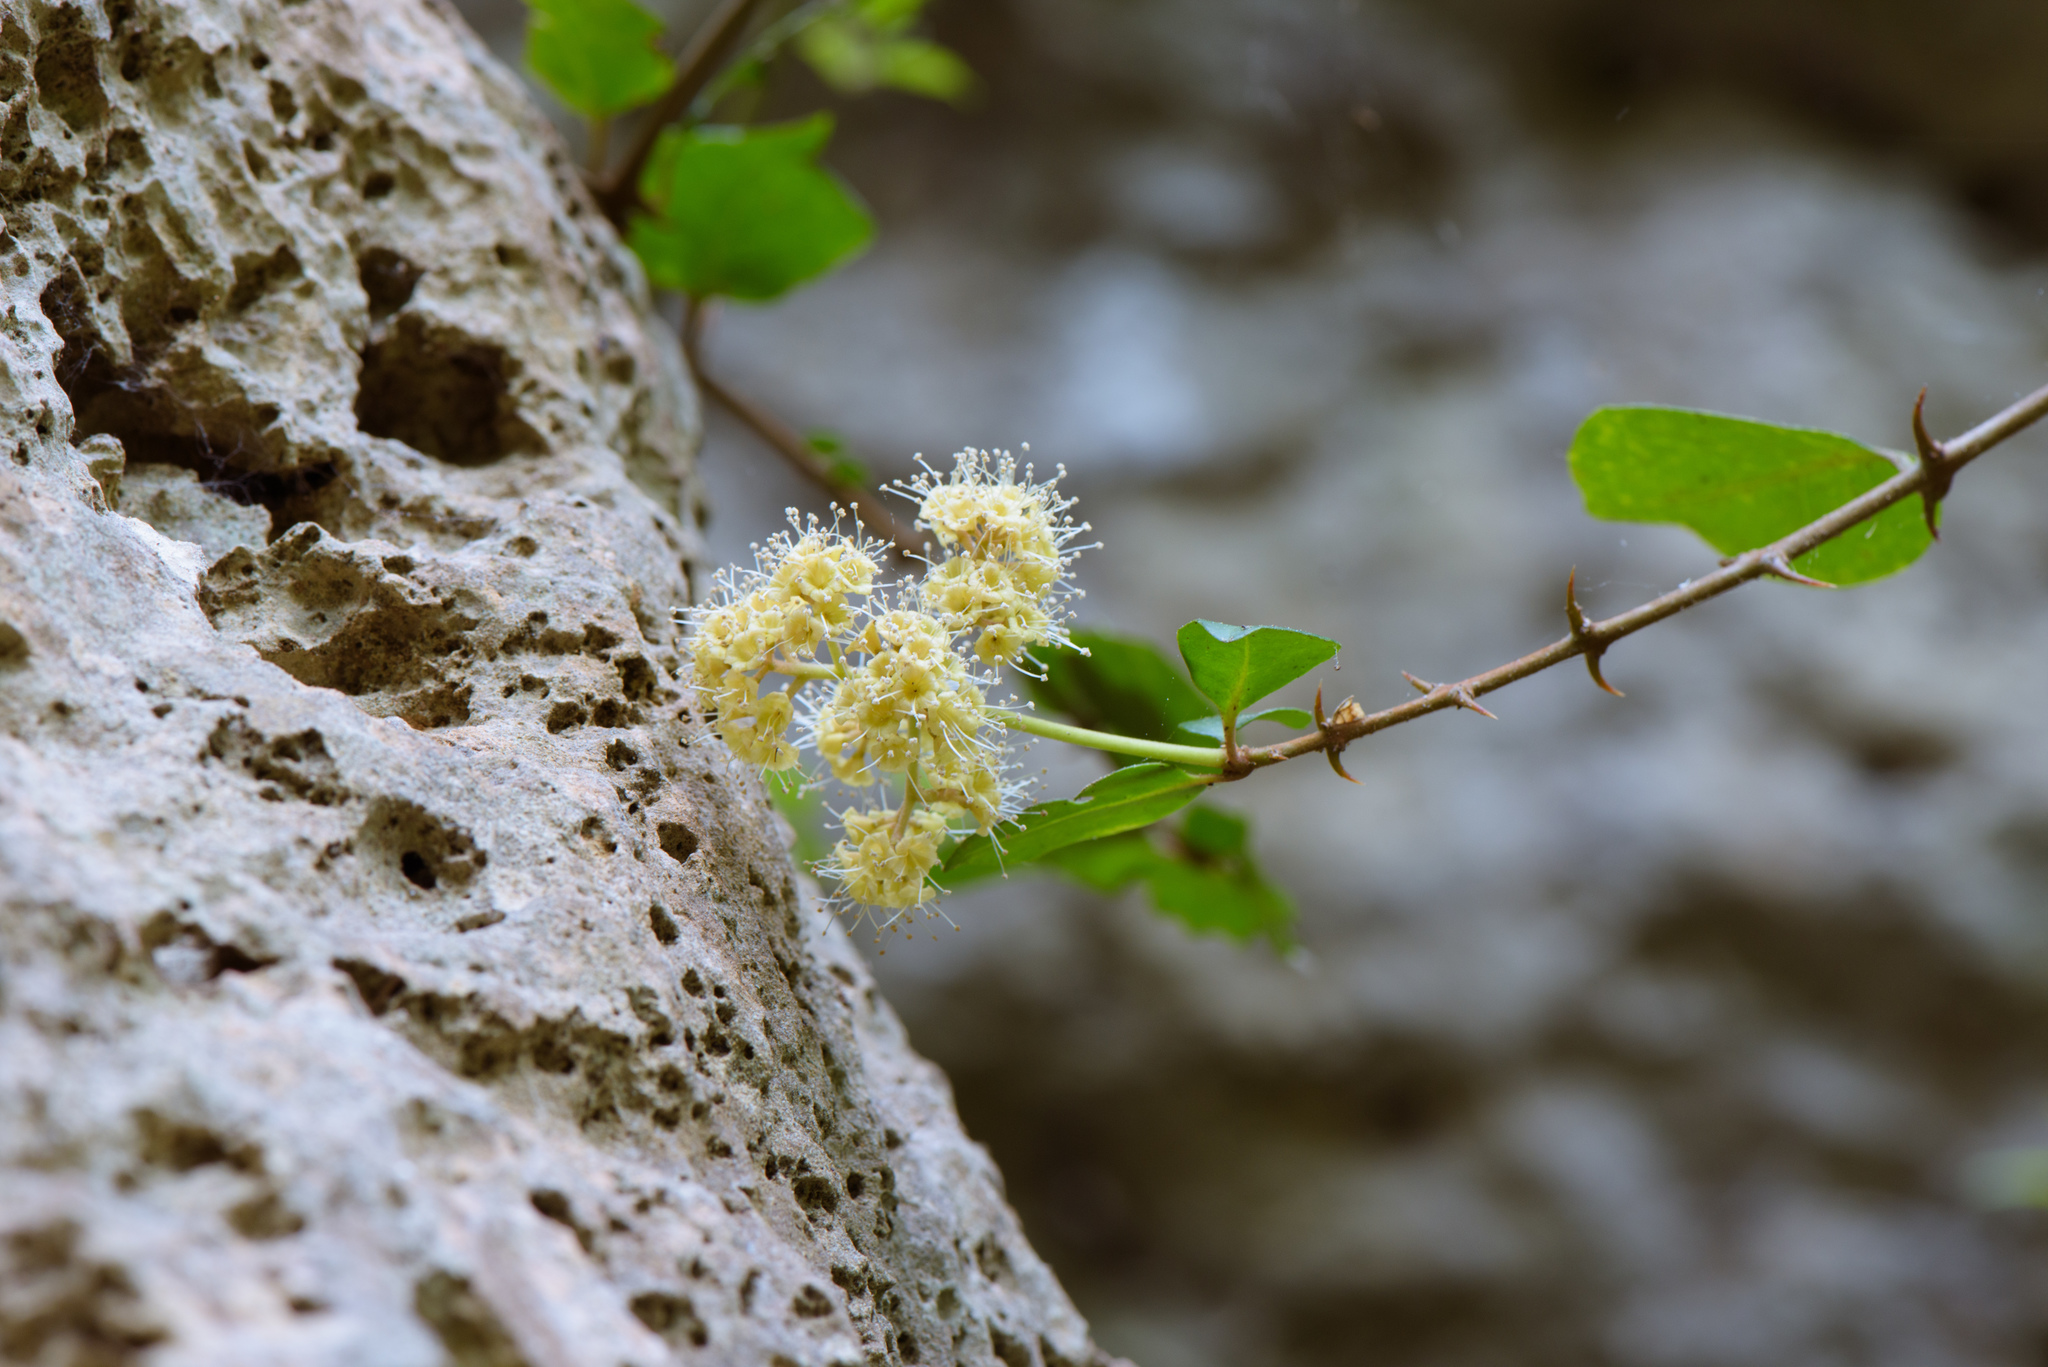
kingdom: Plantae
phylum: Tracheophyta
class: Magnoliopsida
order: Caryophyllales
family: Nyctaginaceae
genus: Pisonia
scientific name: Pisonia aculeata
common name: Cockspur vine
